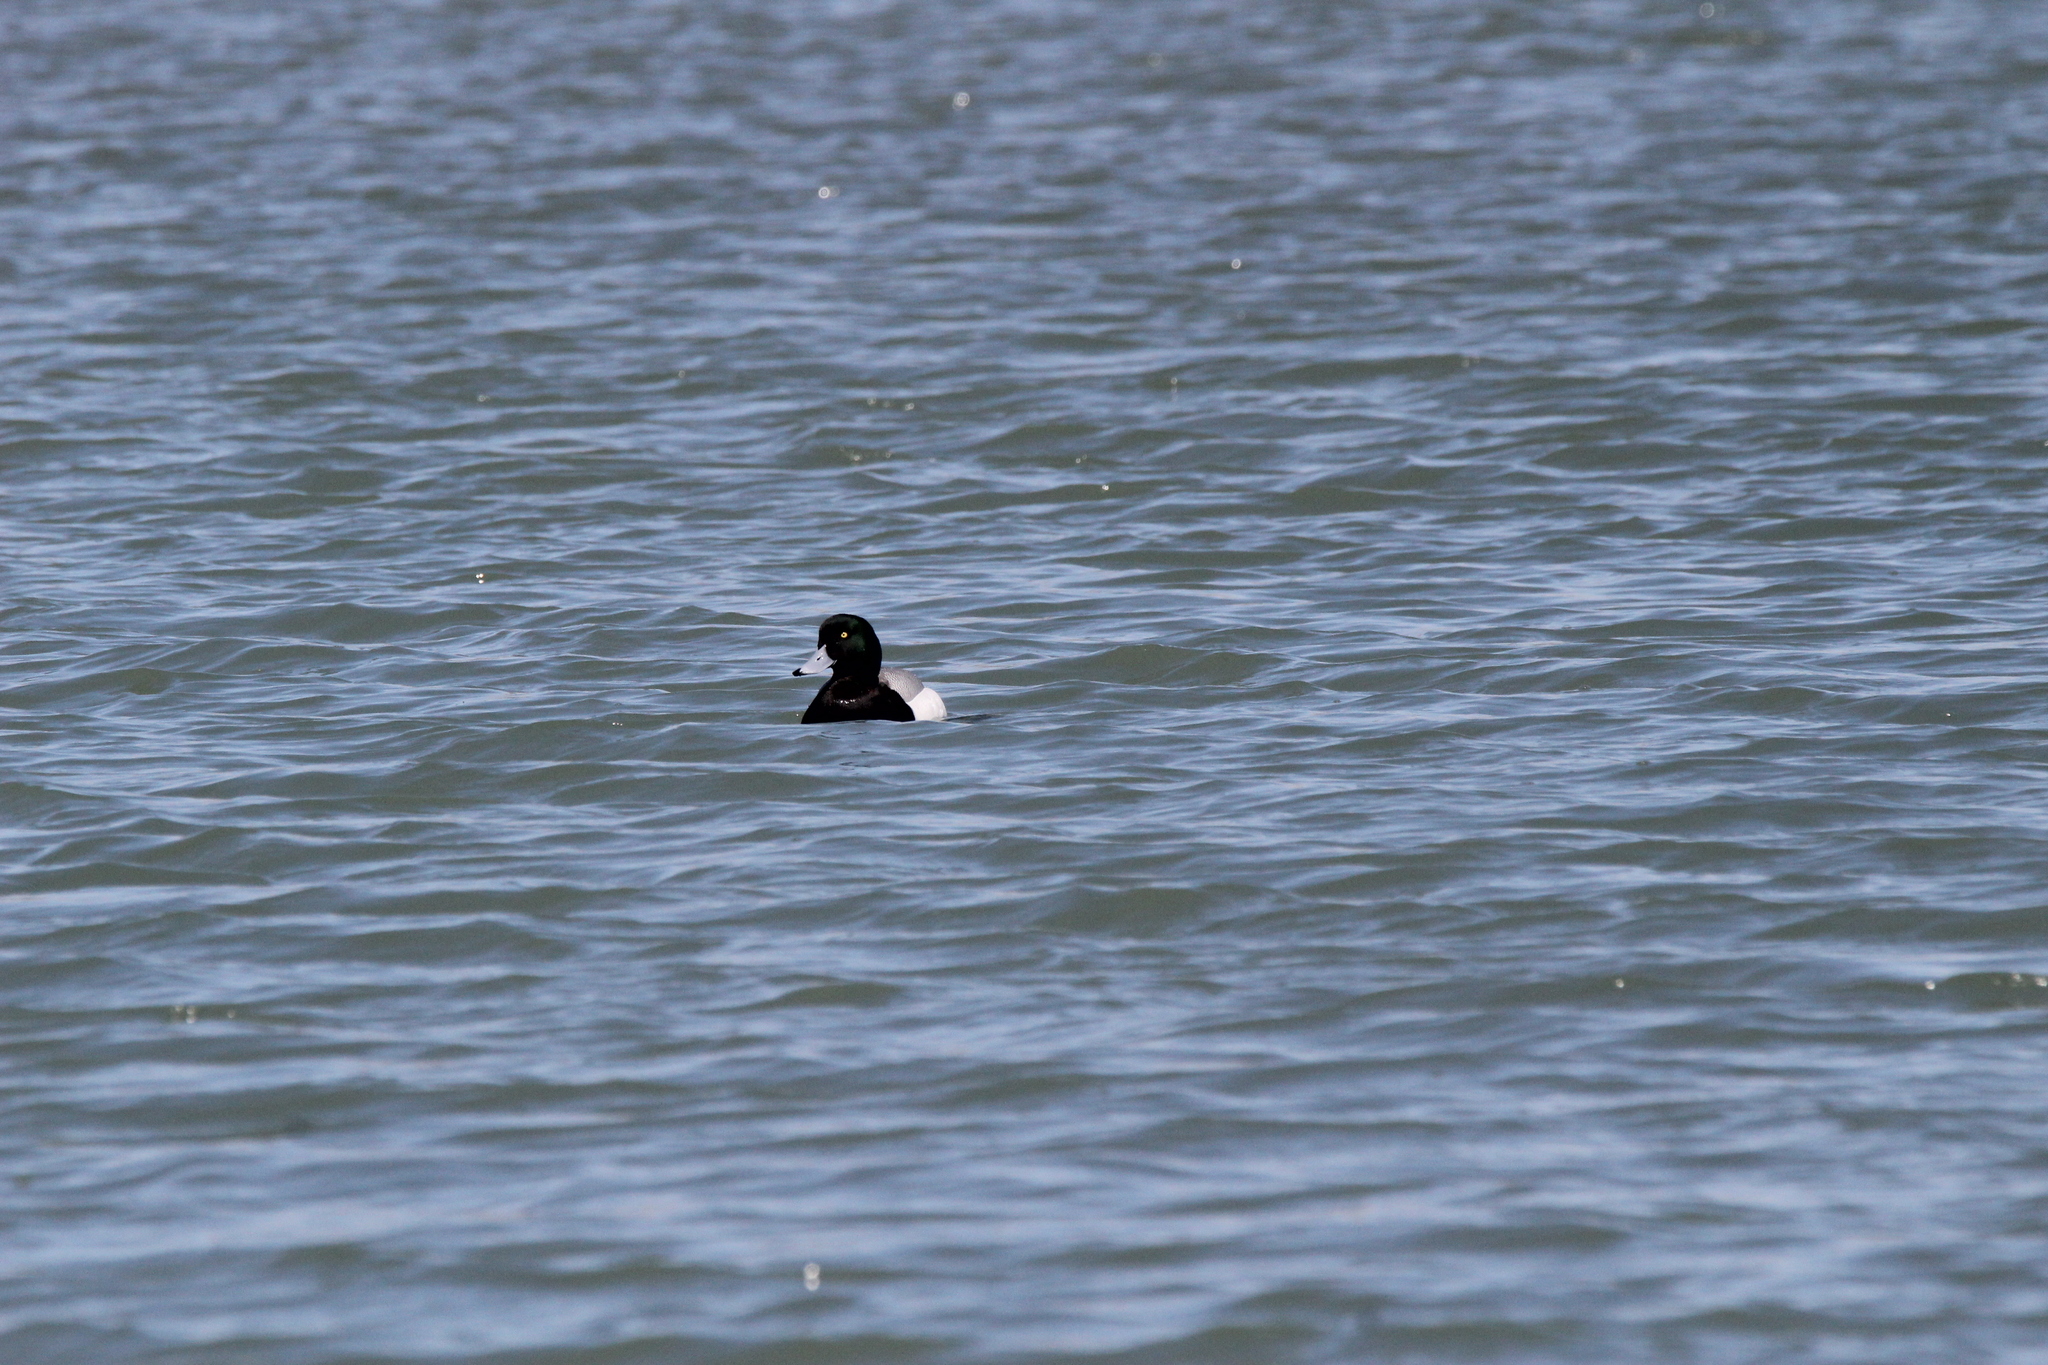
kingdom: Animalia
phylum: Chordata
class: Aves
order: Anseriformes
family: Anatidae
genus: Aythya
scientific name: Aythya marila
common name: Greater scaup
